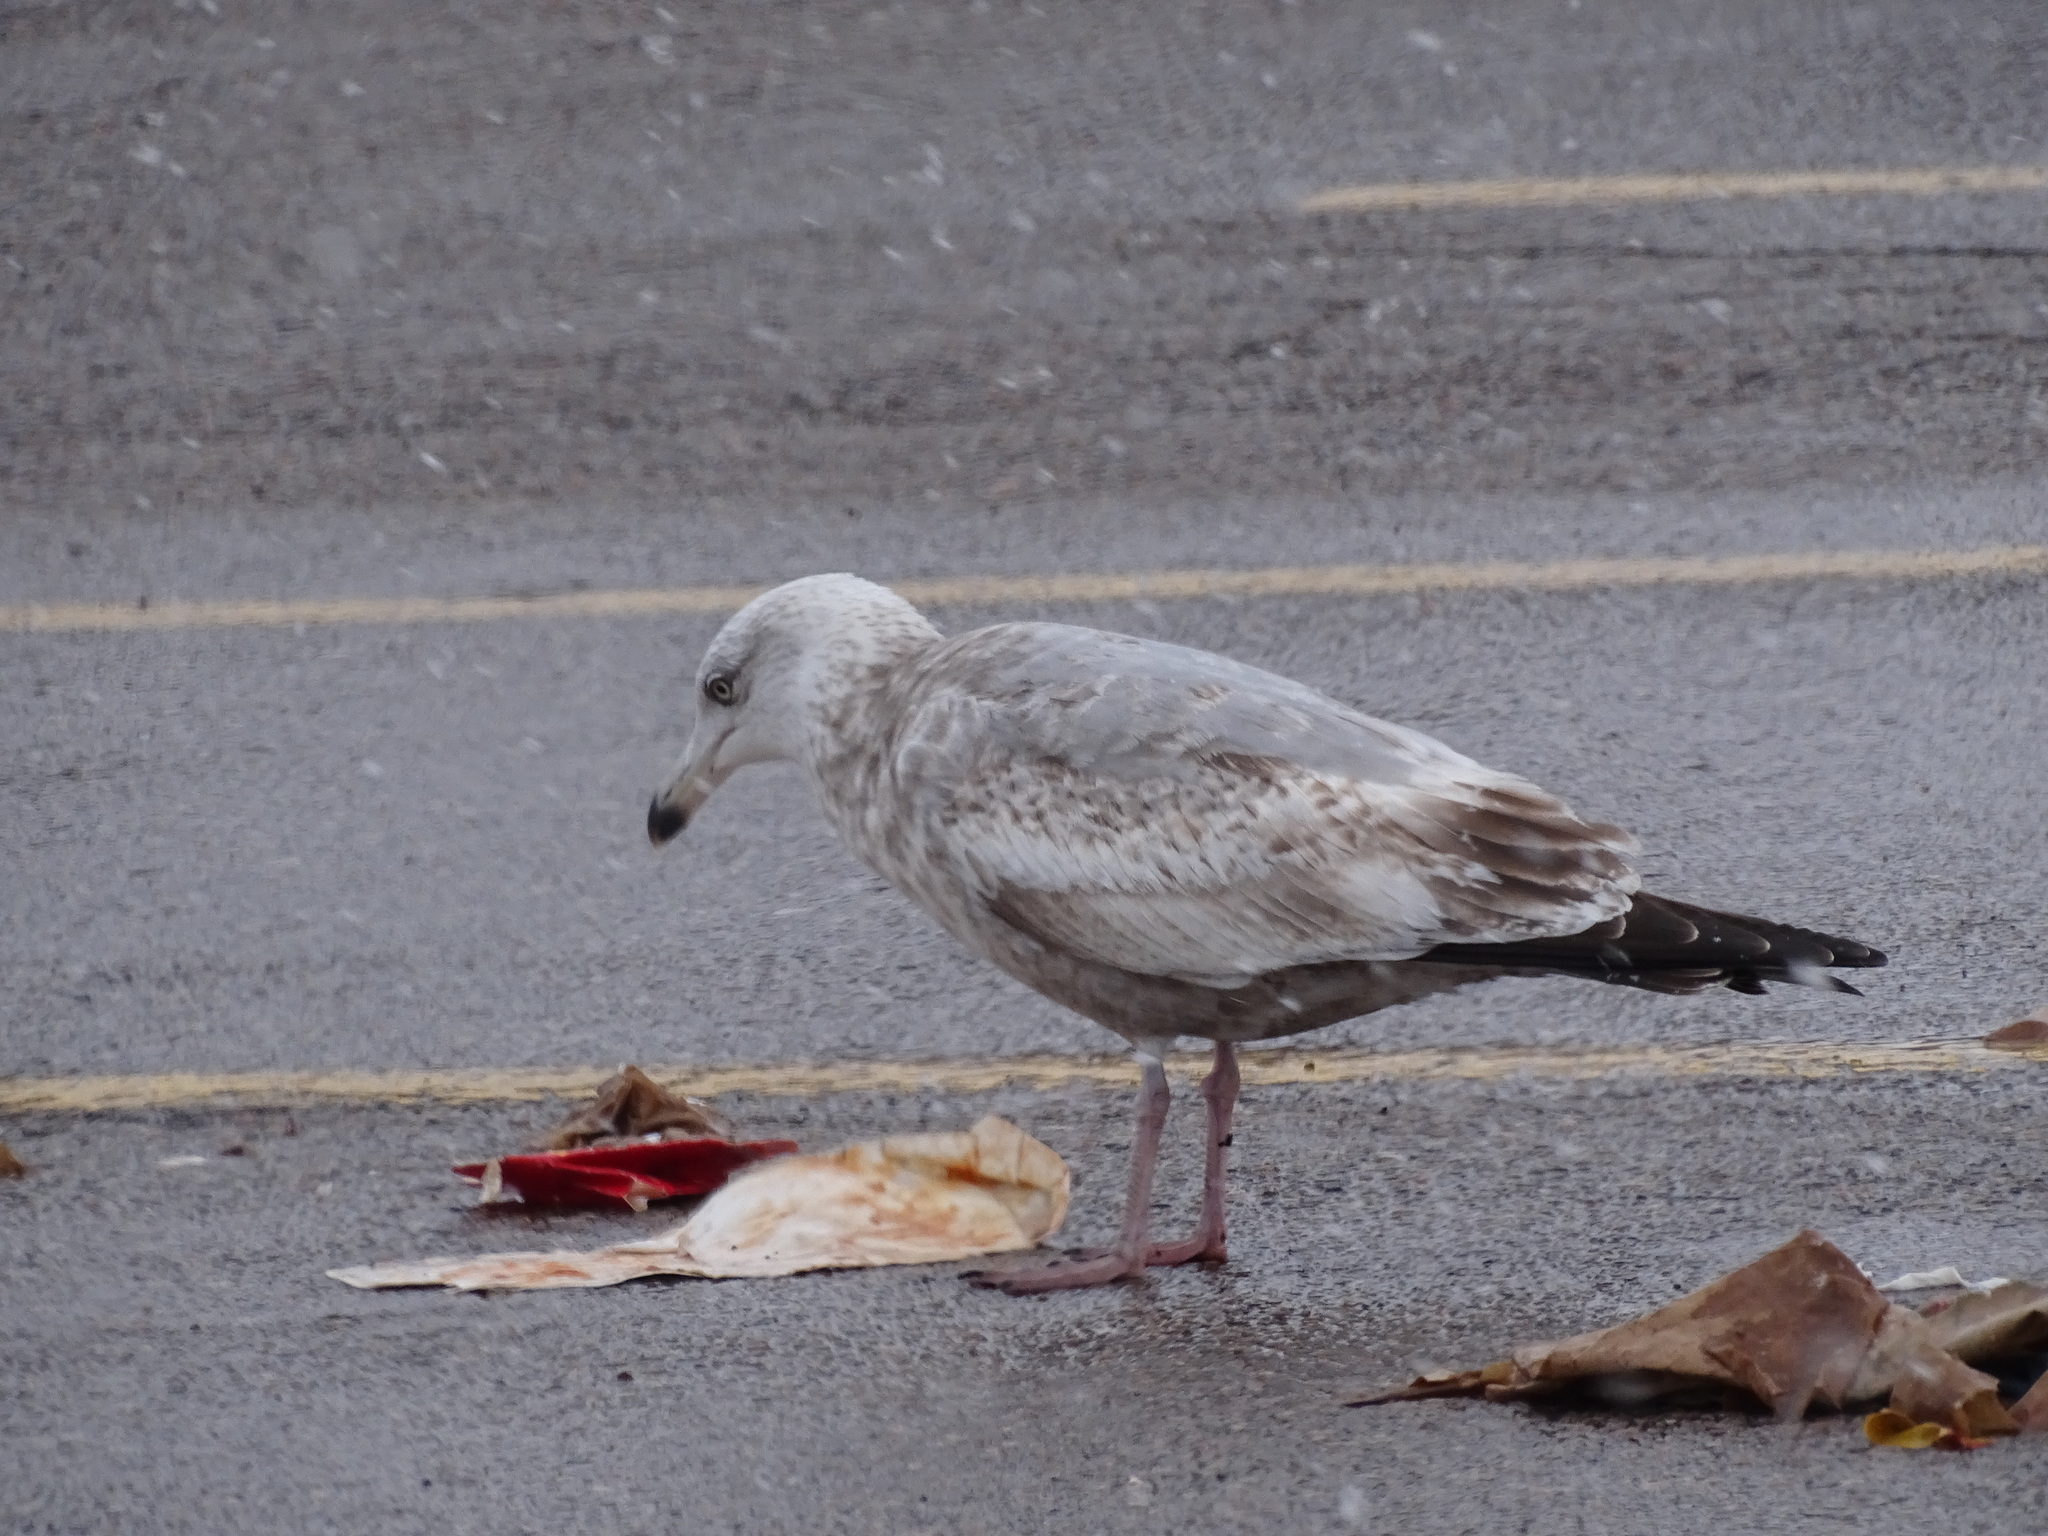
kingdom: Animalia
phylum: Chordata
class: Aves
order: Charadriiformes
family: Laridae
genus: Larus
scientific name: Larus argentatus
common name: Herring gull
